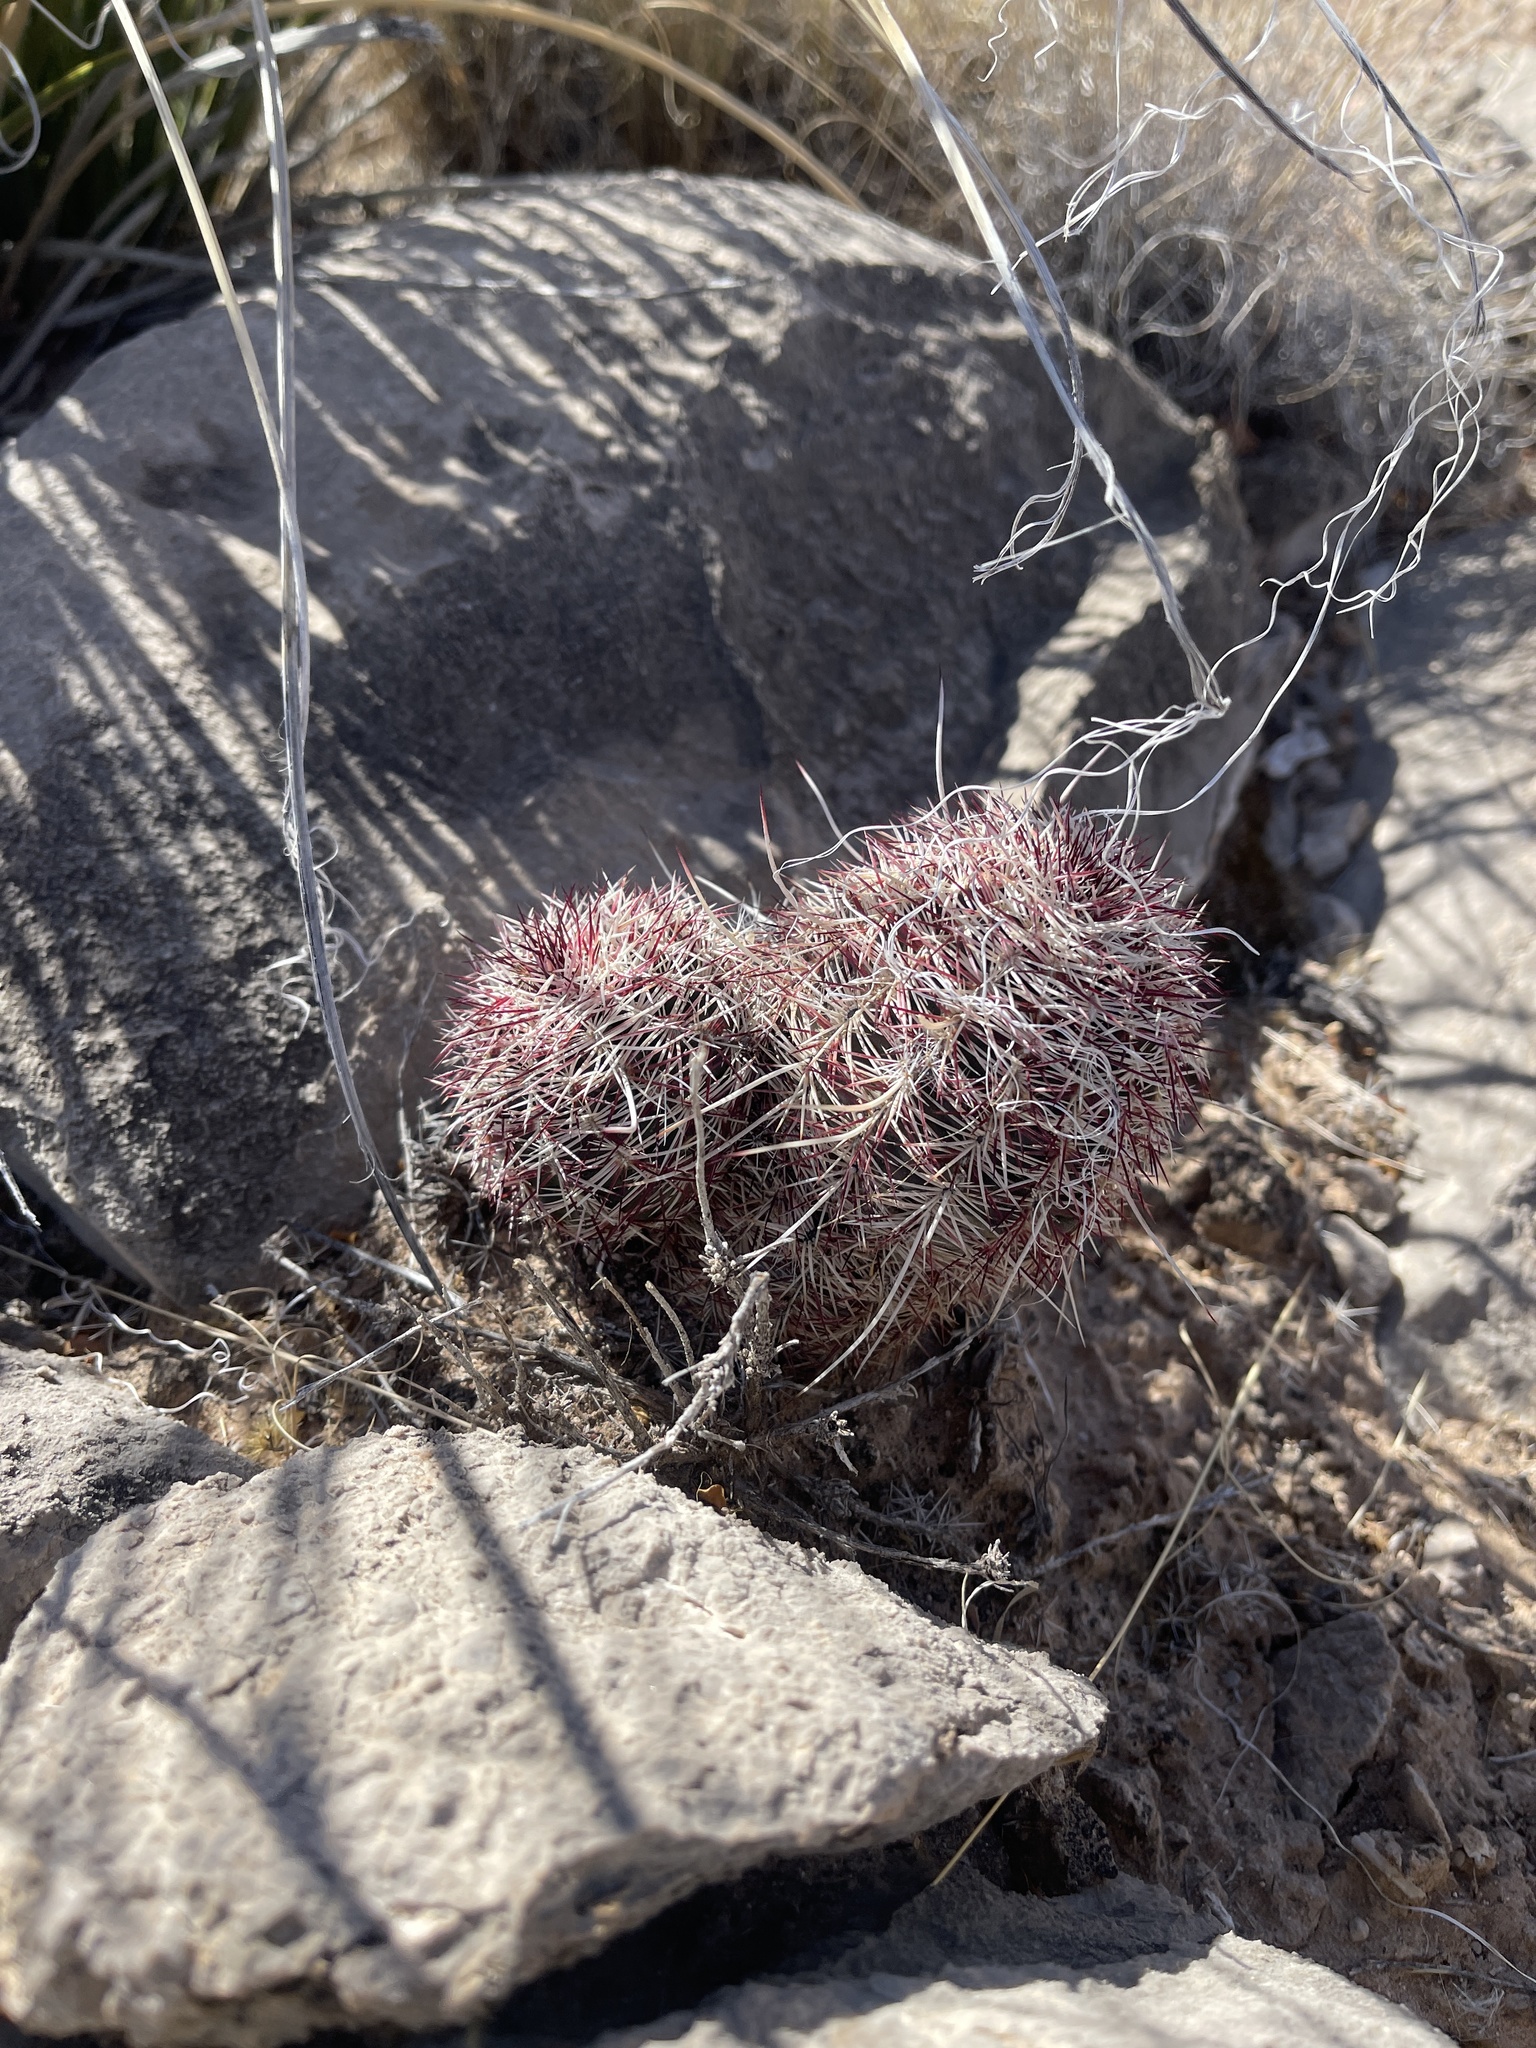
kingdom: Plantae
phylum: Tracheophyta
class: Magnoliopsida
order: Caryophyllales
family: Cactaceae
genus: Echinocereus
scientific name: Echinocereus viridiflorus
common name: Nylon hedgehog cactus
